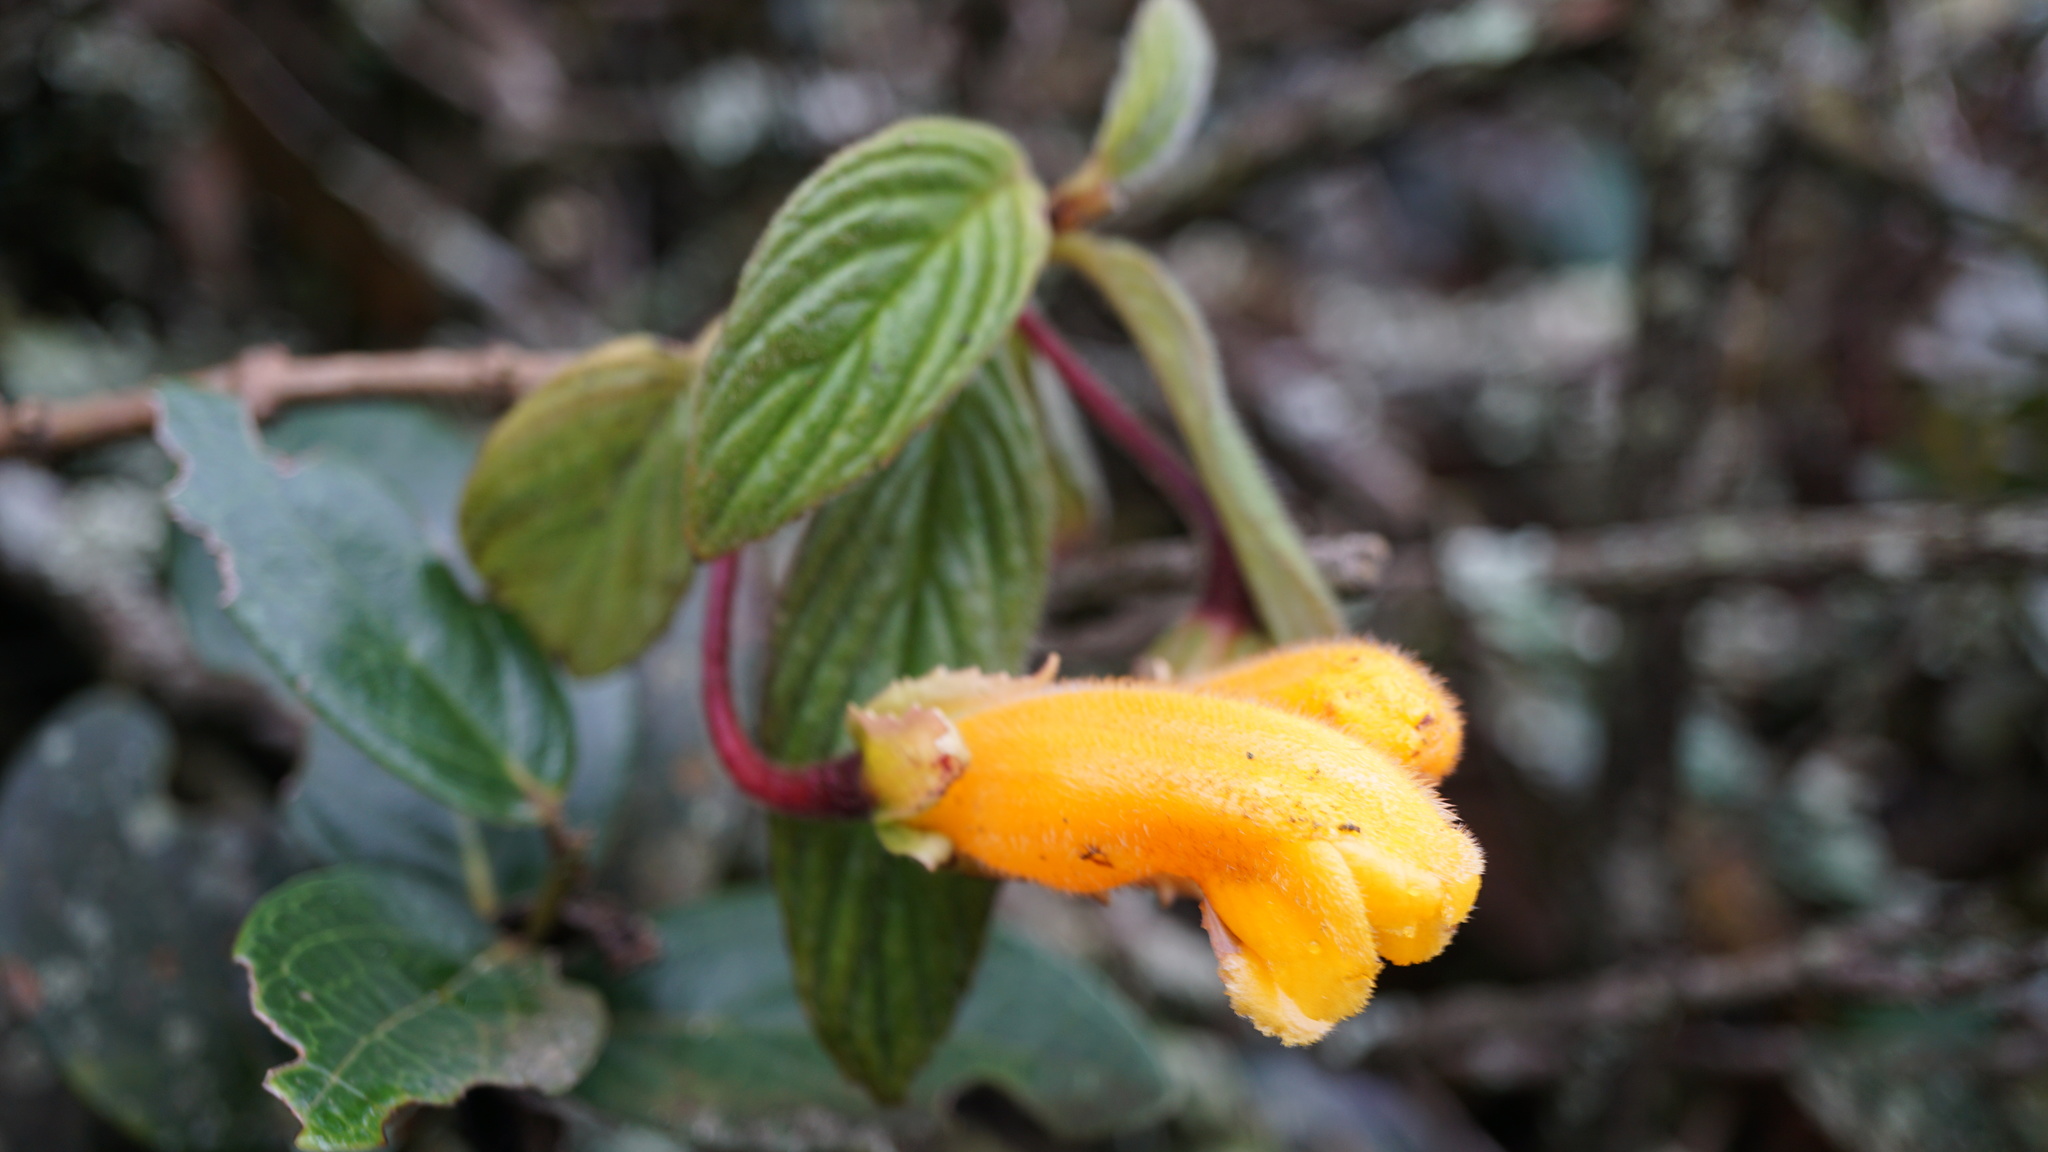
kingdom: Plantae
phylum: Tracheophyta
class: Magnoliopsida
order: Lamiales
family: Gesneriaceae
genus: Columnea
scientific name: Columnea strigosa
